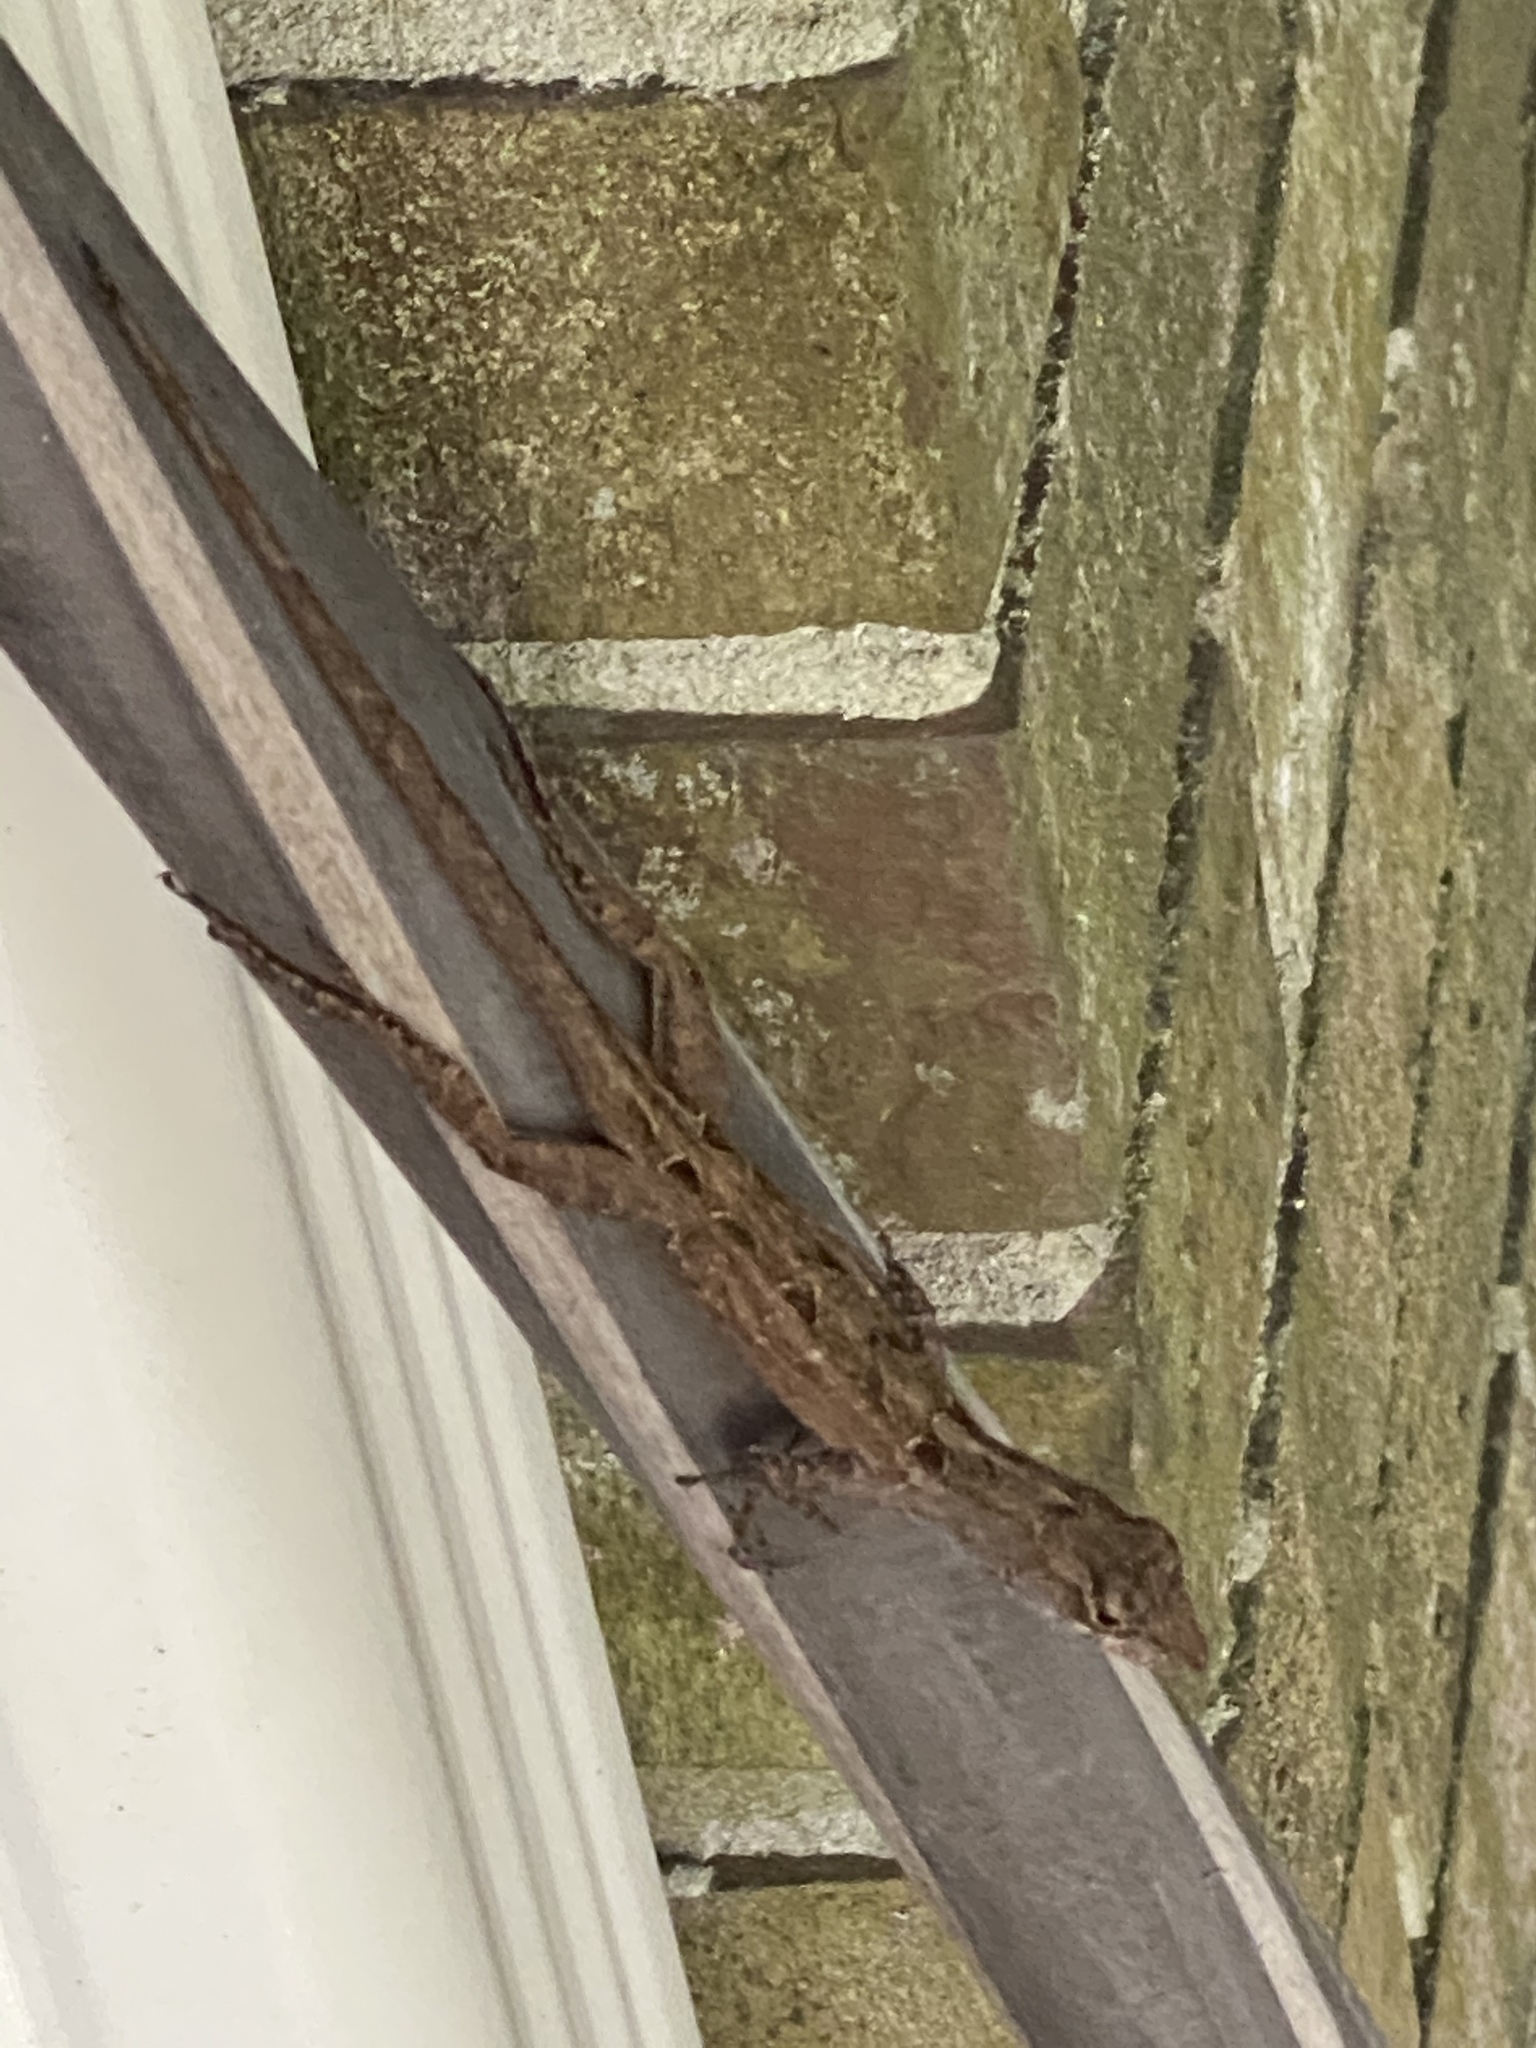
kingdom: Animalia
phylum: Chordata
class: Squamata
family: Dactyloidae
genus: Anolis
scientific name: Anolis sagrei
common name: Brown anole
